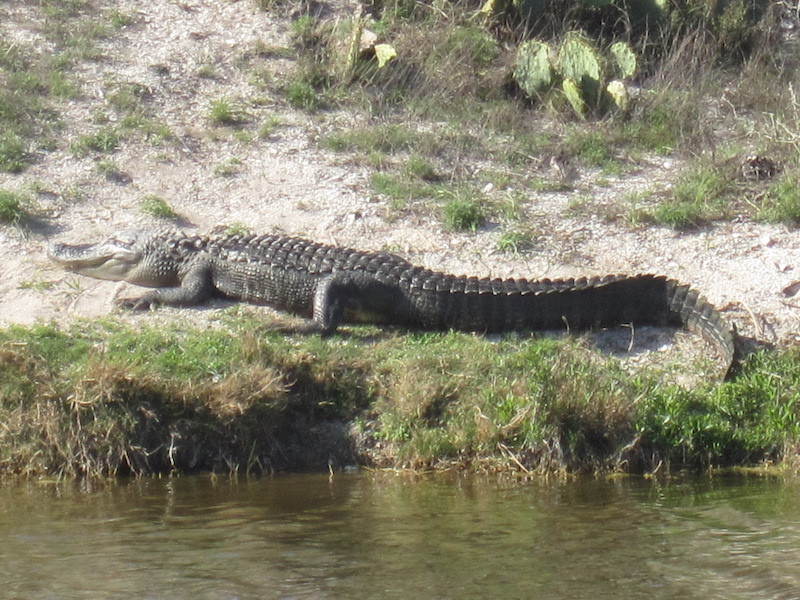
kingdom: Animalia
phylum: Chordata
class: Crocodylia
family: Alligatoridae
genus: Alligator
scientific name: Alligator mississippiensis
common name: American alligator
